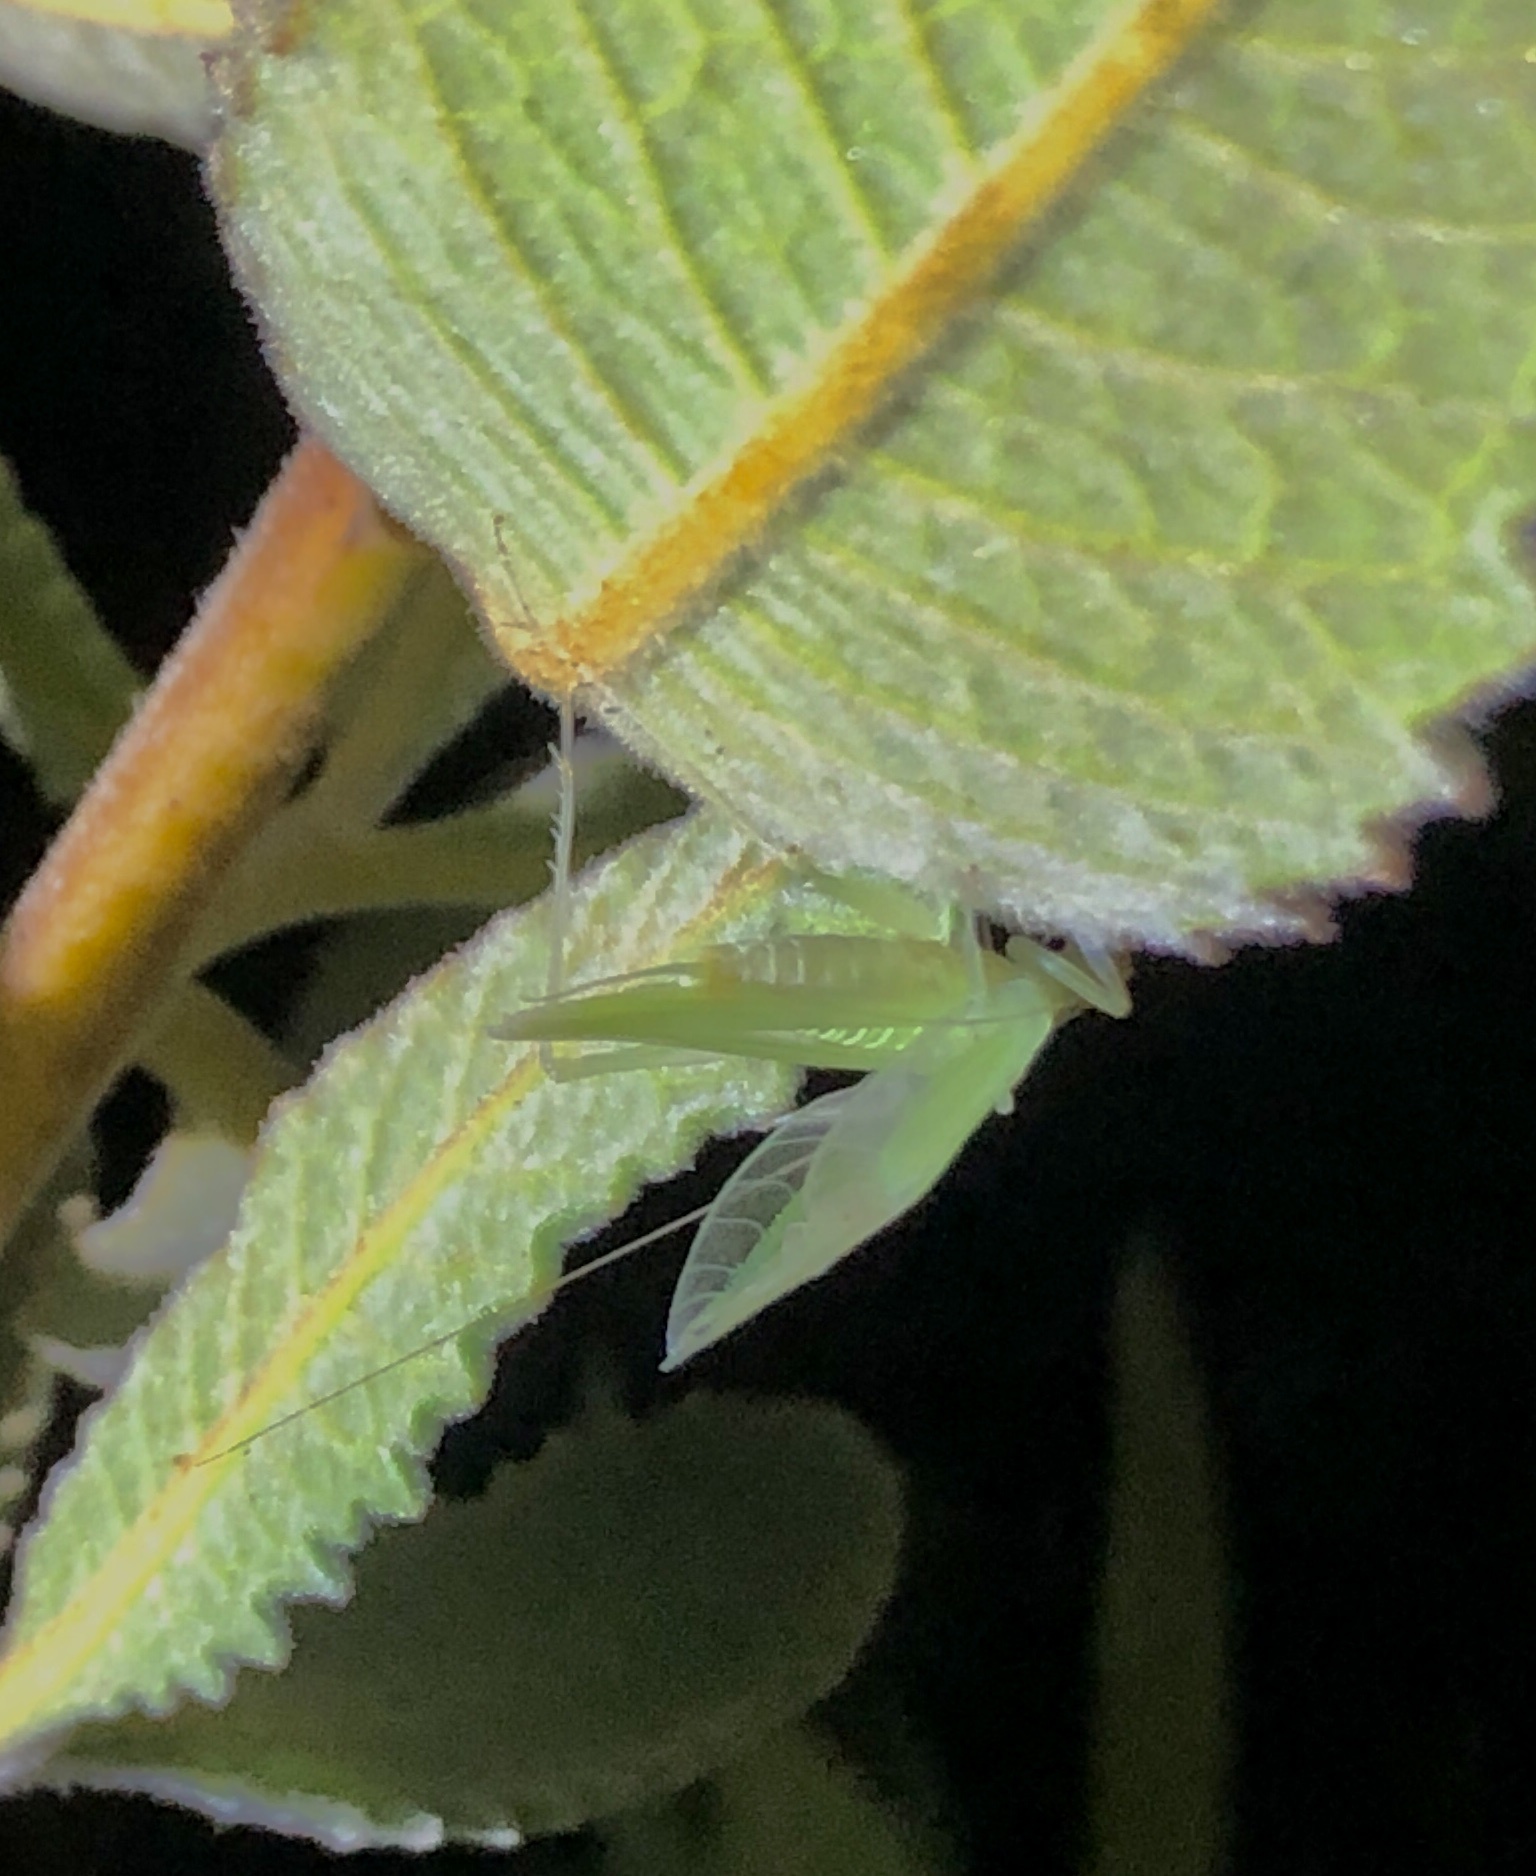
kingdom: Animalia
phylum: Arthropoda
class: Insecta
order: Orthoptera
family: Gryllidae
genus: Oecanthus
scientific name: Oecanthus
